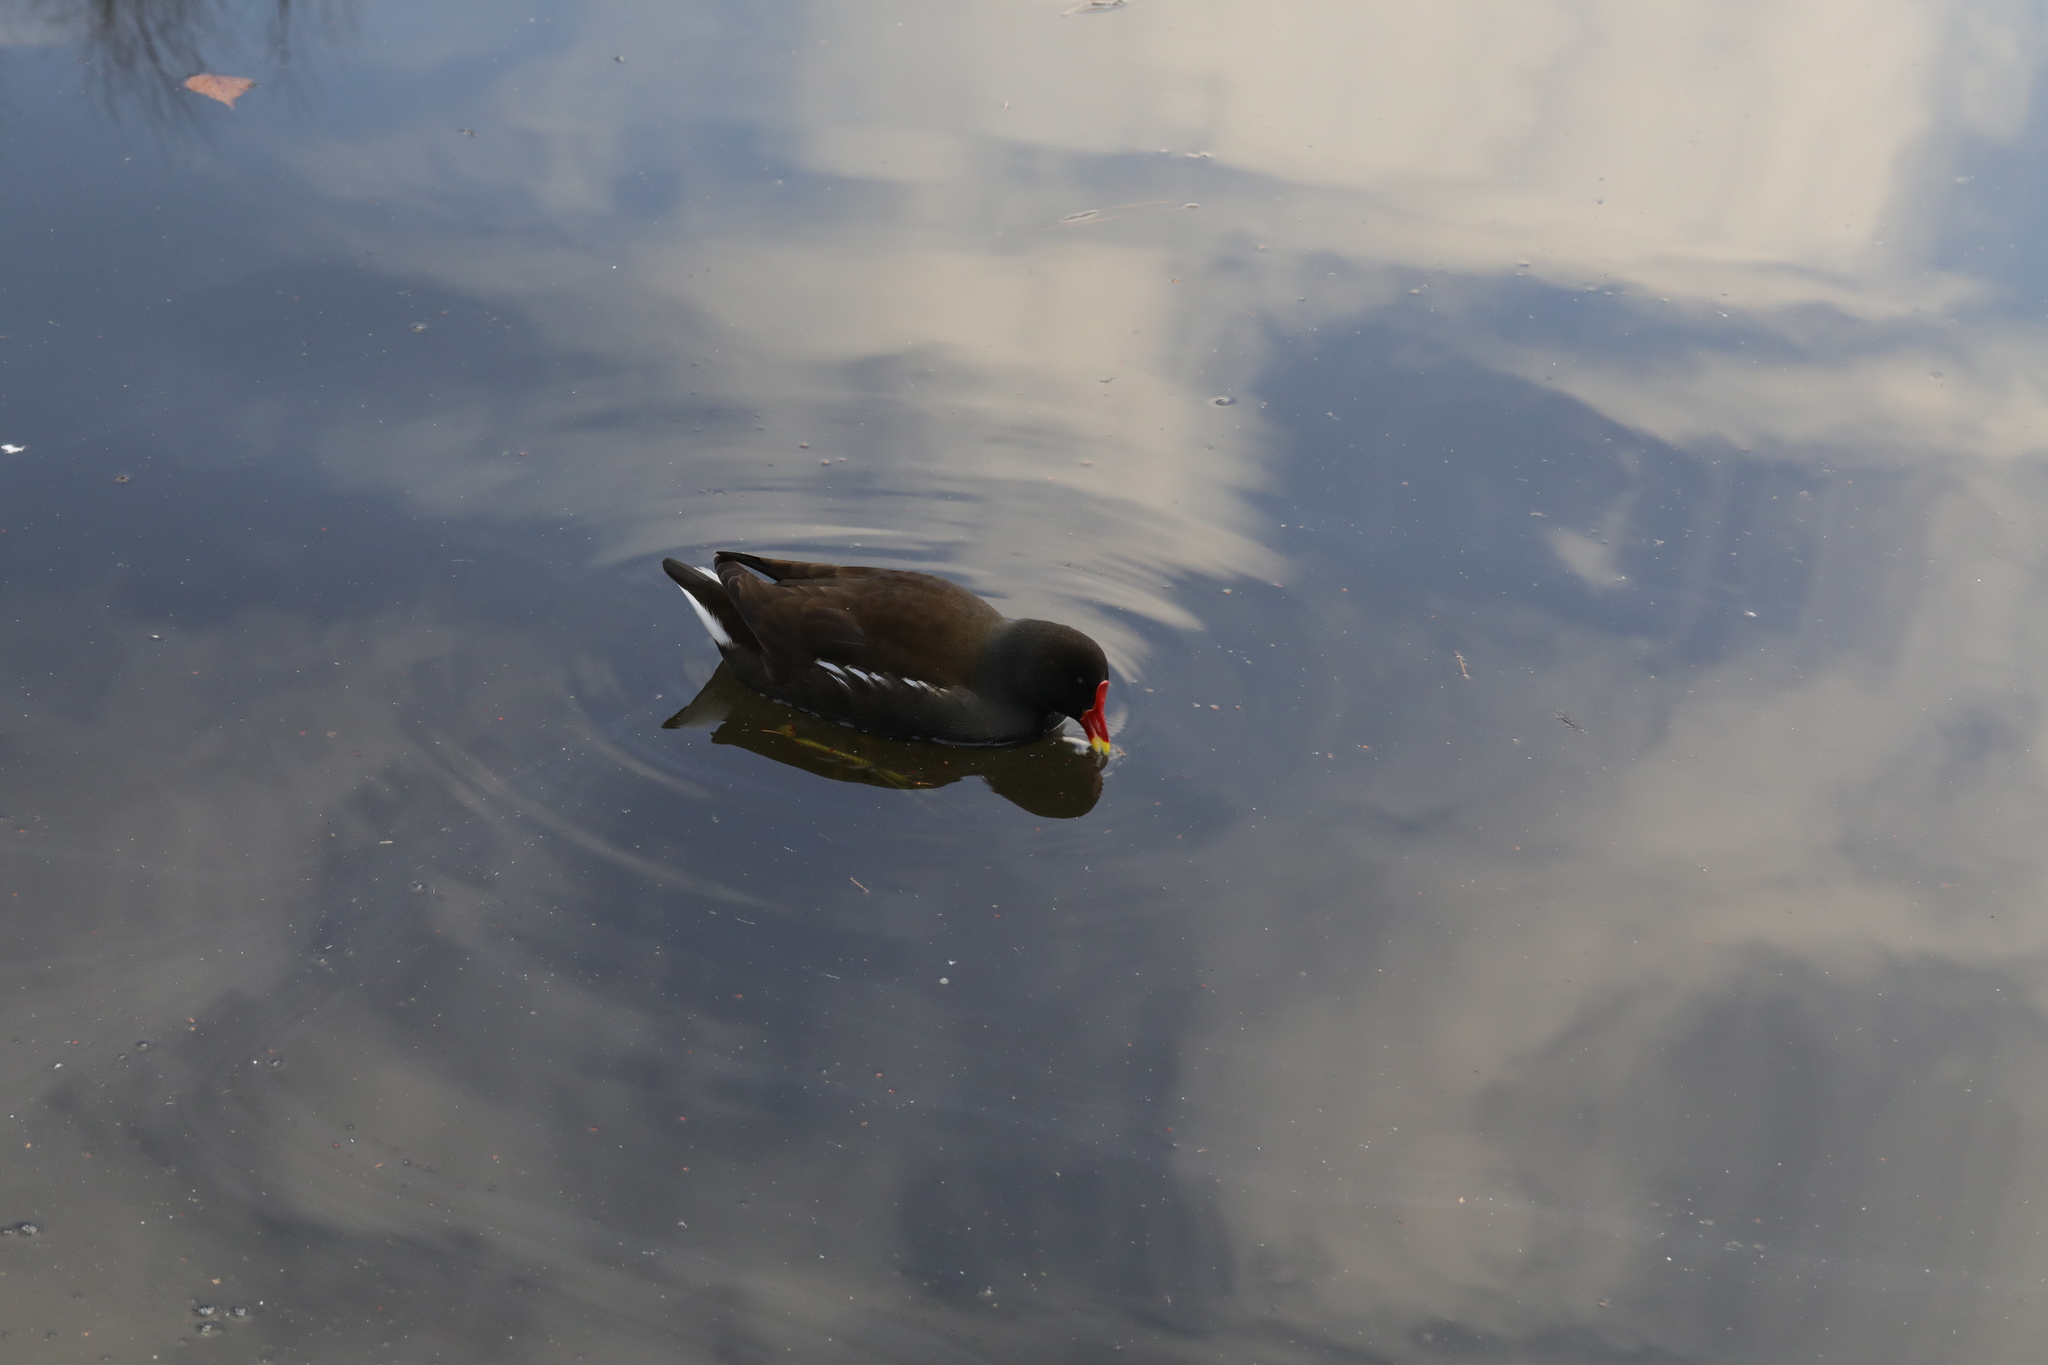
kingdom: Animalia
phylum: Chordata
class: Aves
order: Gruiformes
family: Rallidae
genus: Gallinula
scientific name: Gallinula chloropus
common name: Common moorhen
